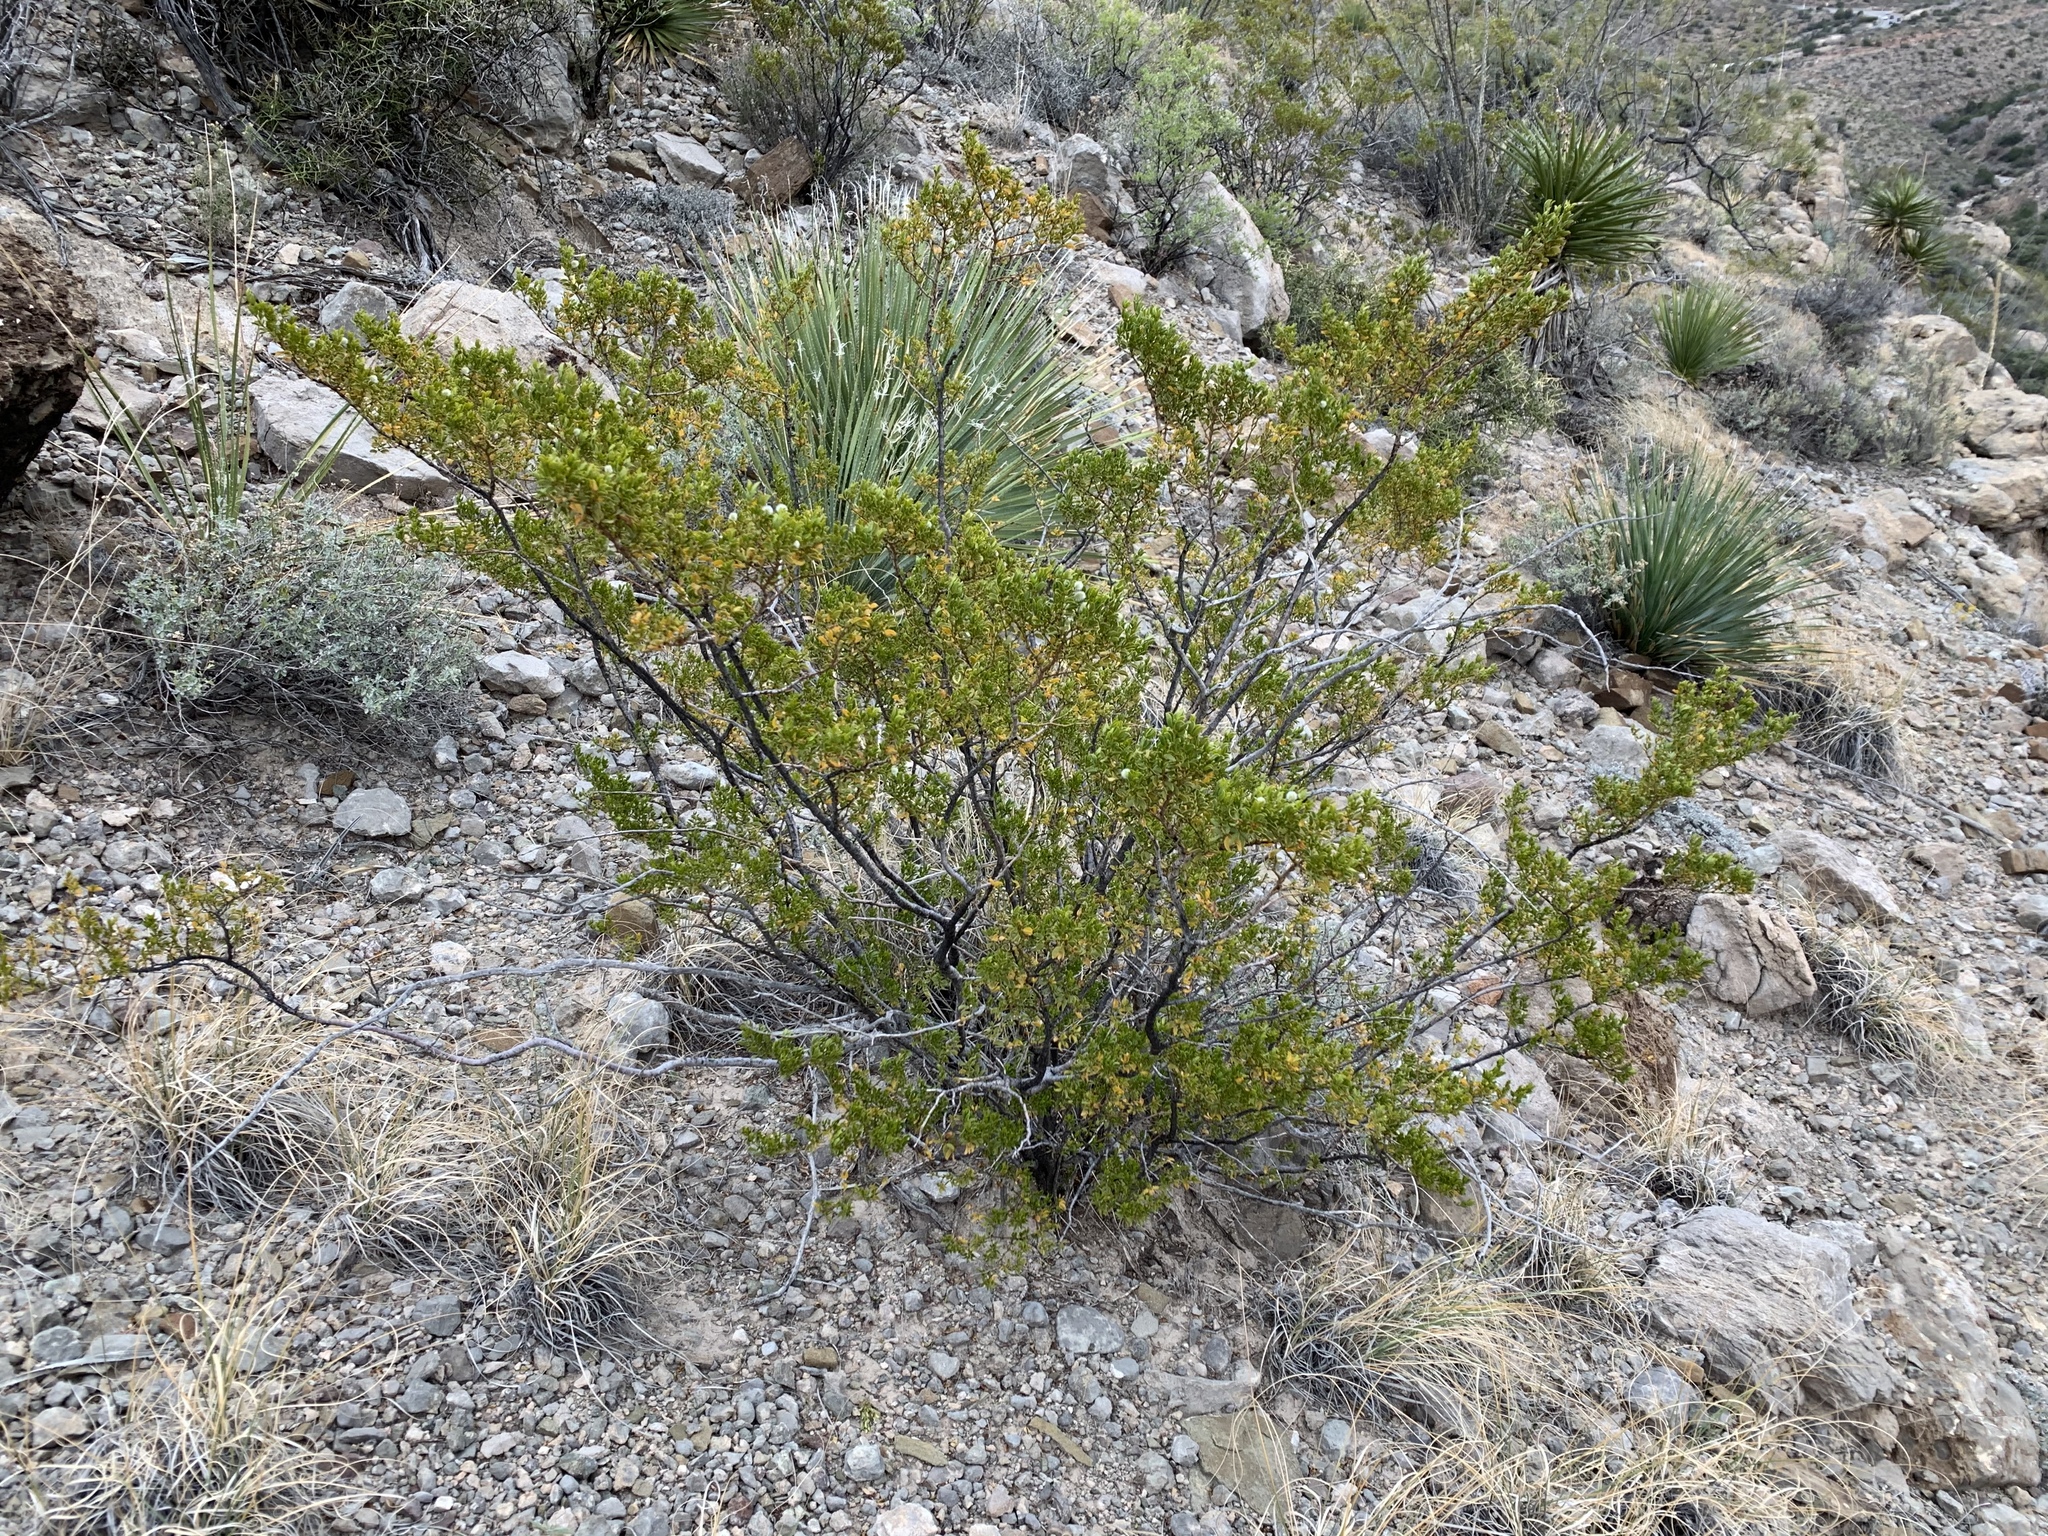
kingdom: Plantae
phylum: Tracheophyta
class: Magnoliopsida
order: Zygophyllales
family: Zygophyllaceae
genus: Larrea
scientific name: Larrea tridentata
